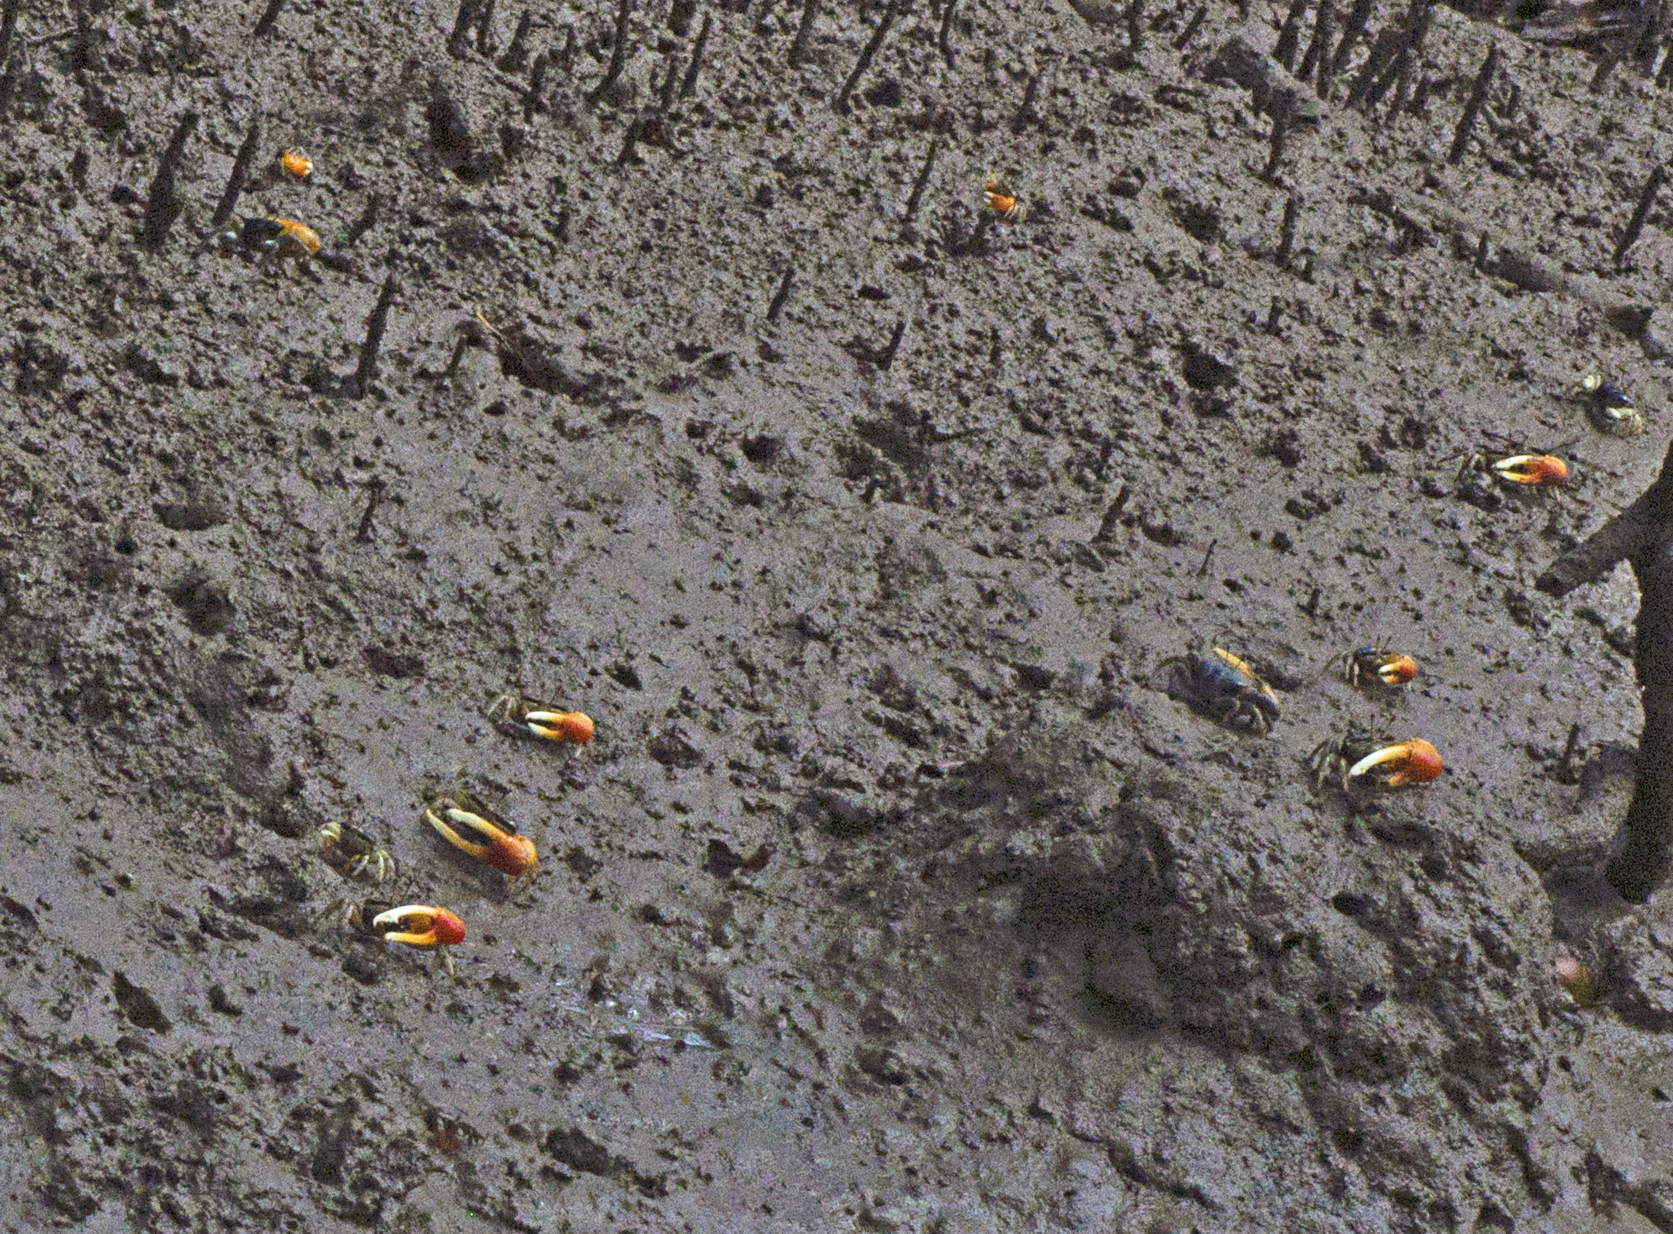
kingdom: Animalia
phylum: Arthropoda
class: Malacostraca
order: Decapoda
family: Ocypodidae
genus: Tubuca
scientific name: Tubuca coarctata
